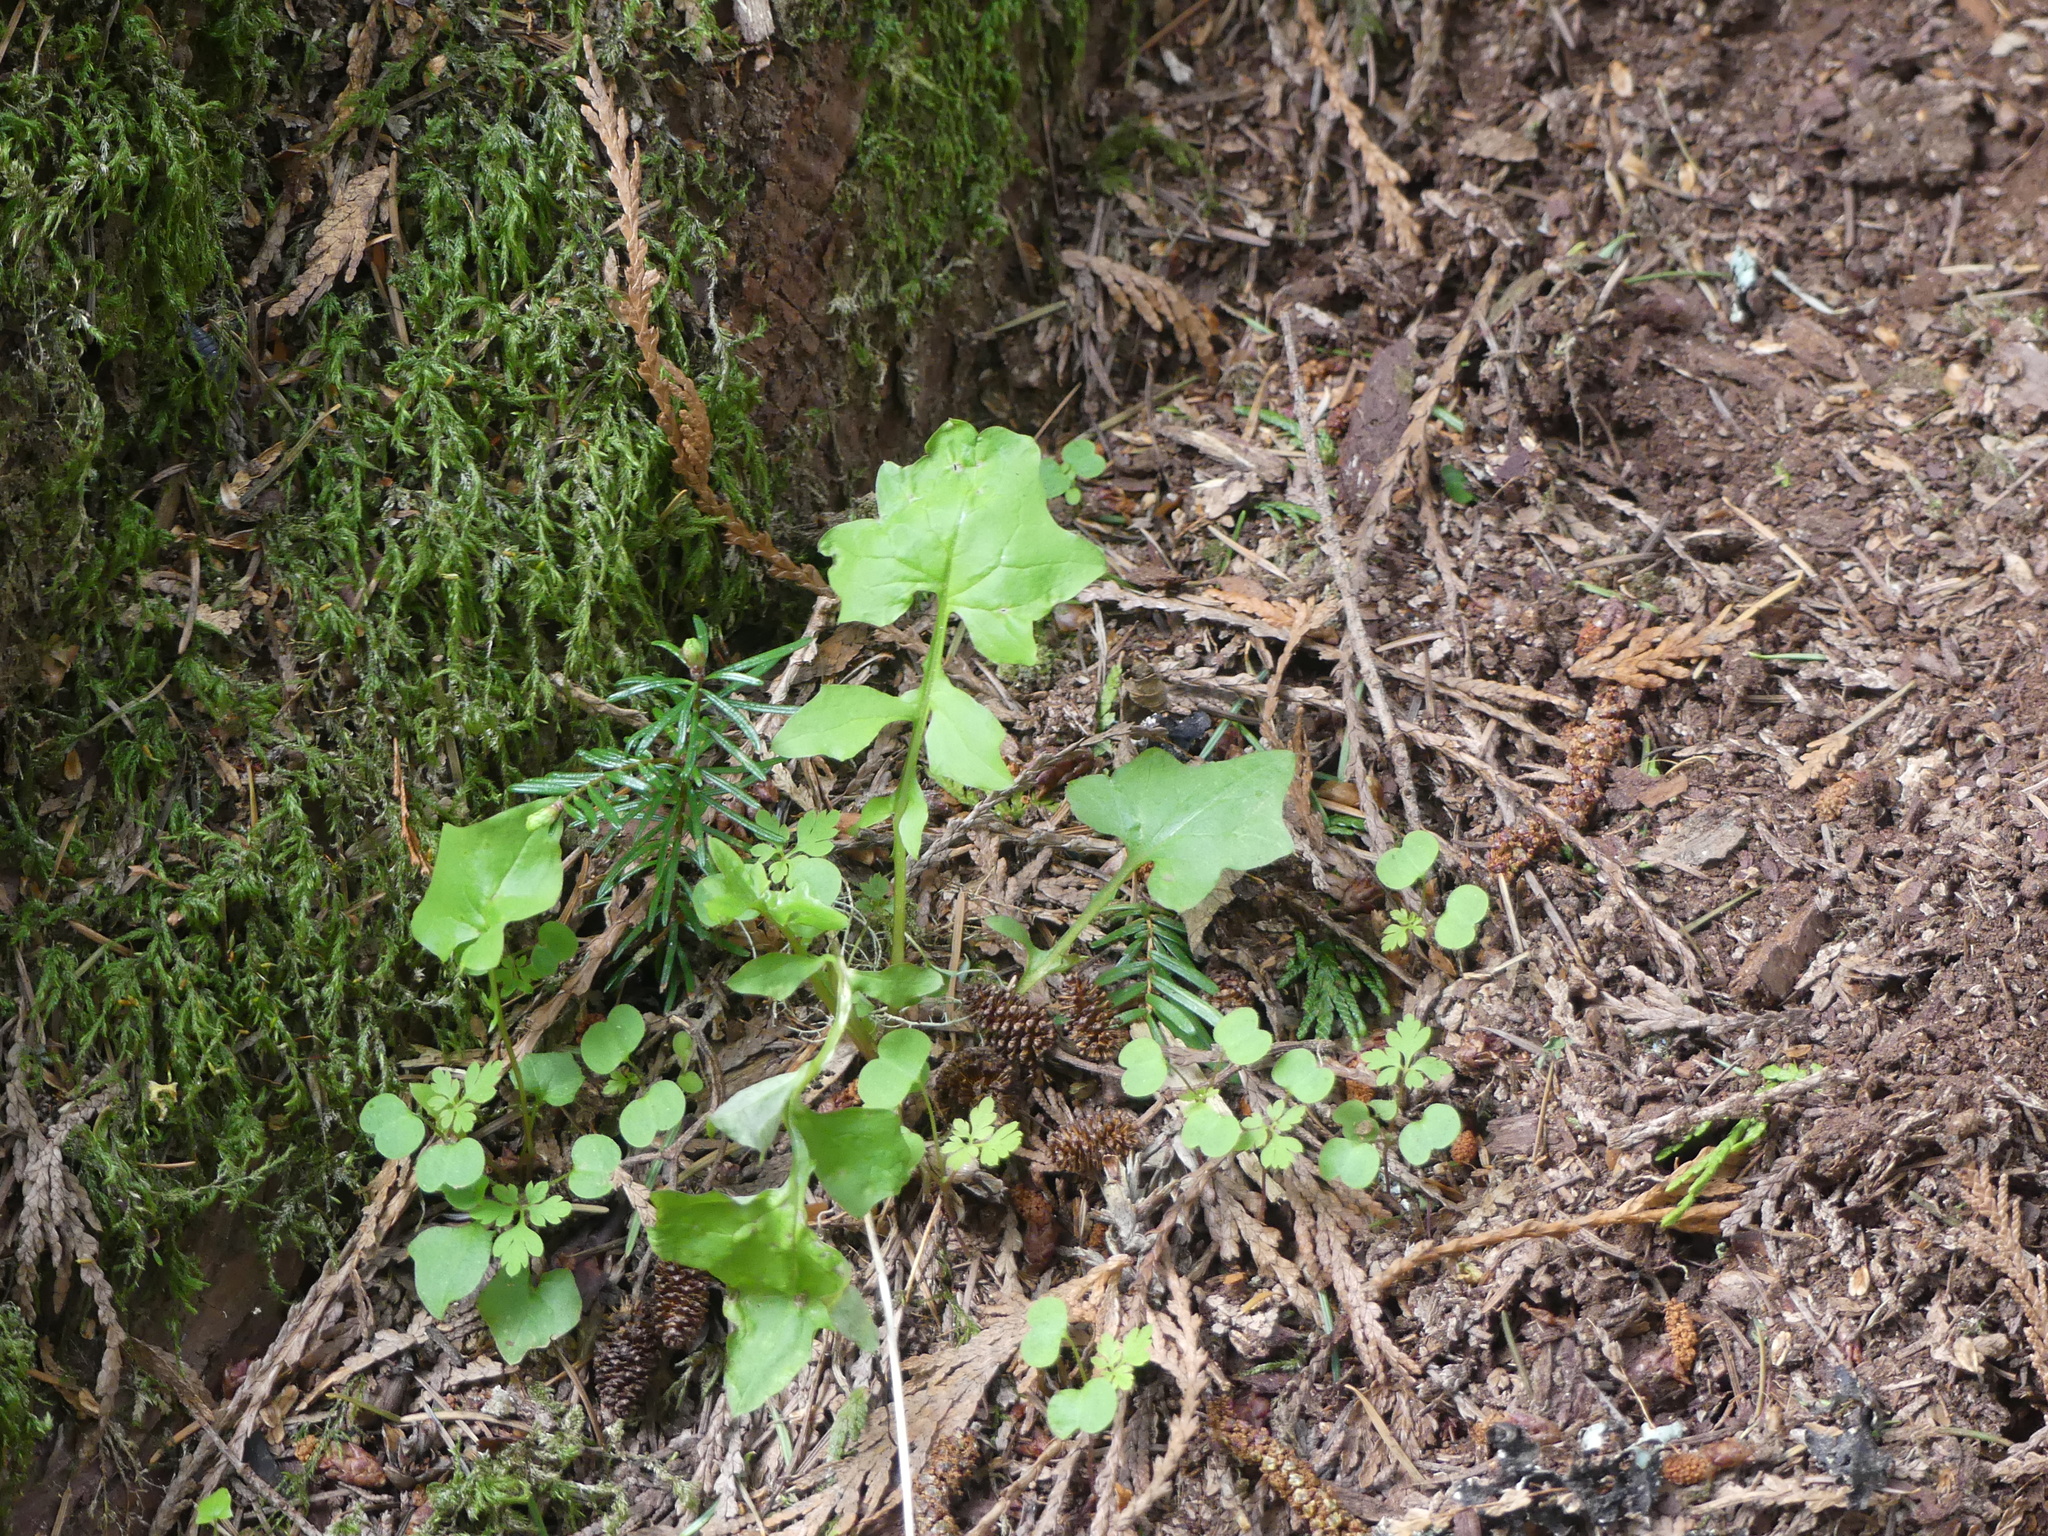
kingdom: Plantae
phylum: Tracheophyta
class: Magnoliopsida
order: Asterales
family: Asteraceae
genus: Mycelis
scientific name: Mycelis muralis
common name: Wall lettuce
